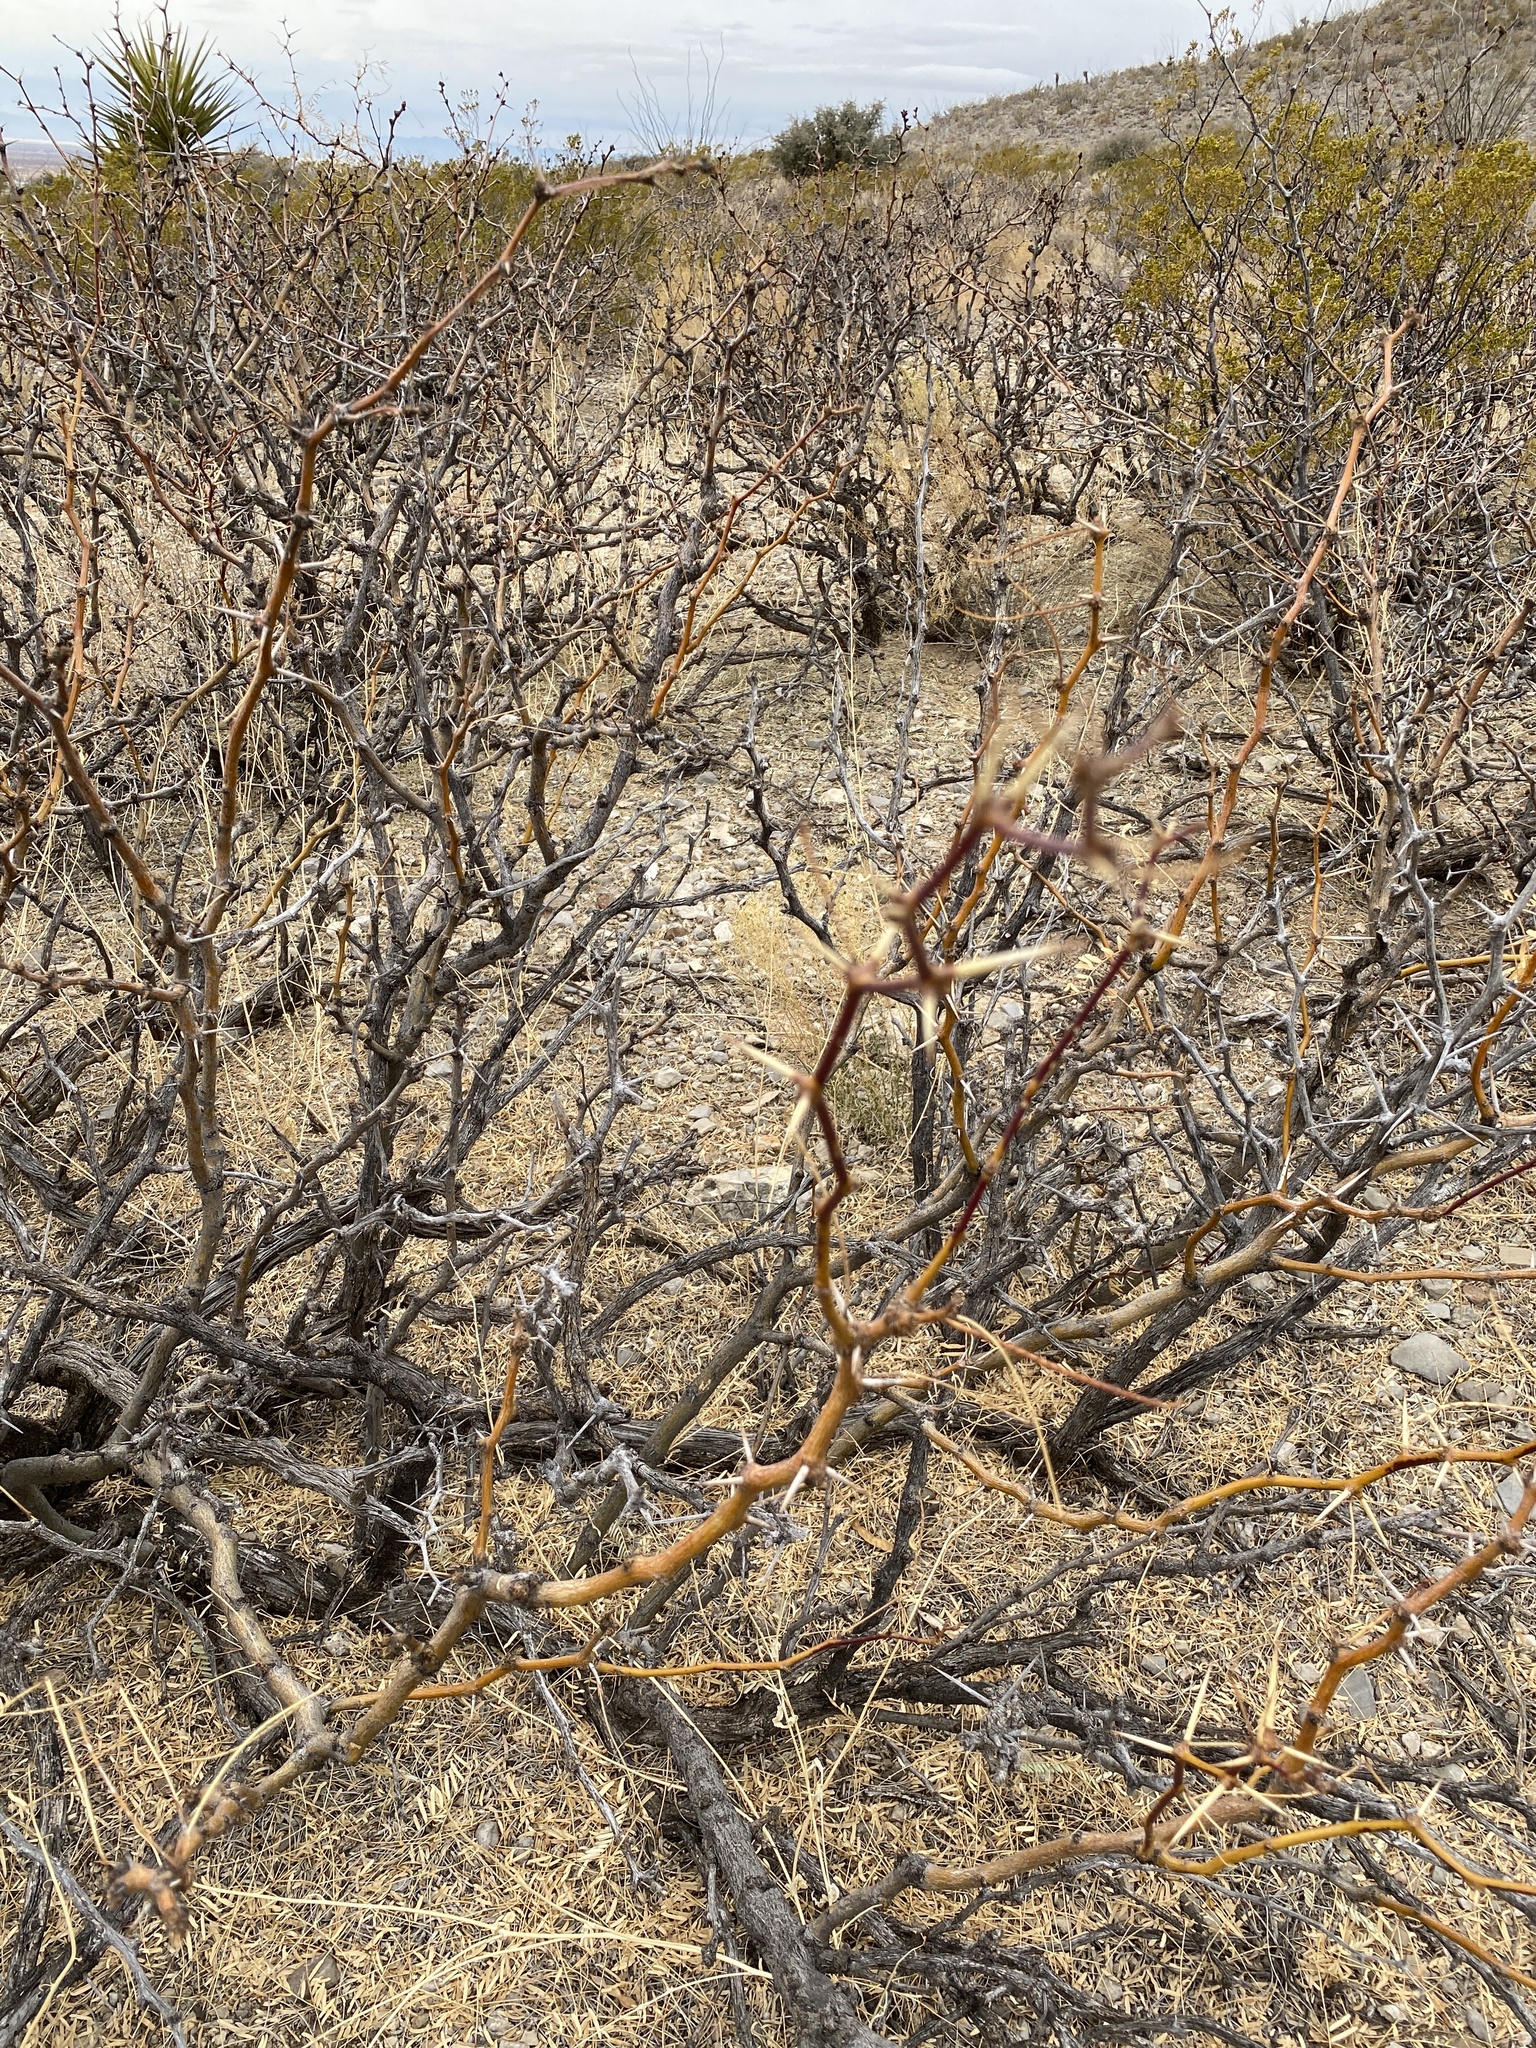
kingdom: Plantae
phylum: Tracheophyta
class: Magnoliopsida
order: Fabales
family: Fabaceae
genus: Prosopis
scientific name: Prosopis glandulosa
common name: Honey mesquite
